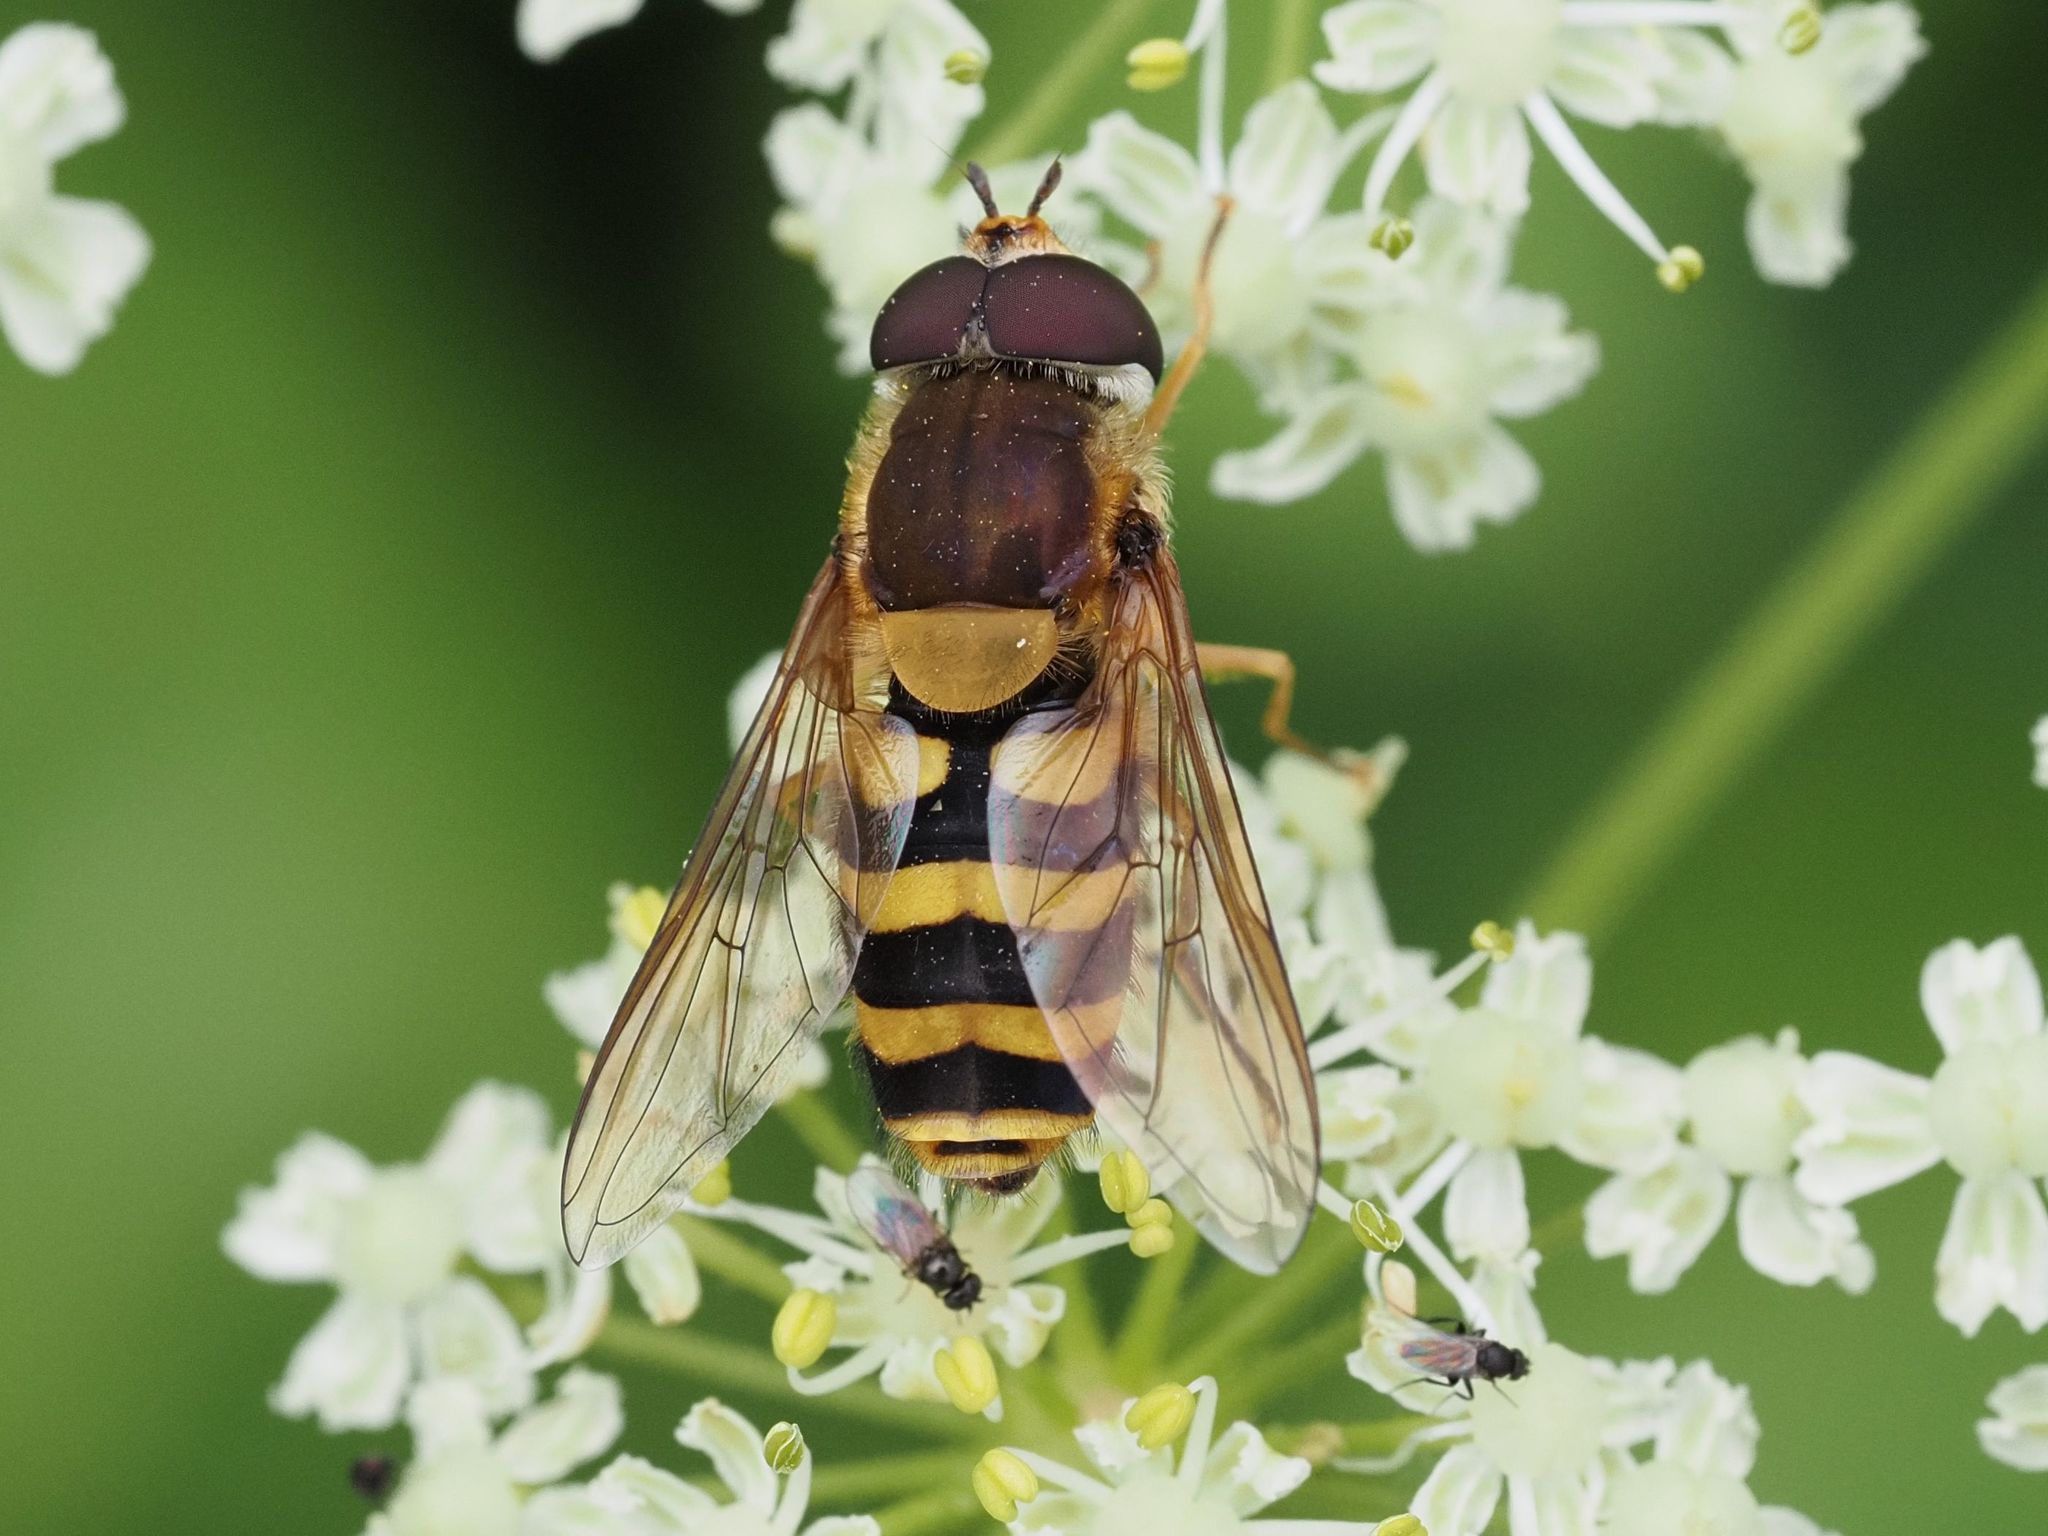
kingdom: Animalia
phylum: Arthropoda
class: Insecta
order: Diptera
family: Syrphidae
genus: Syrphus
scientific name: Syrphus
